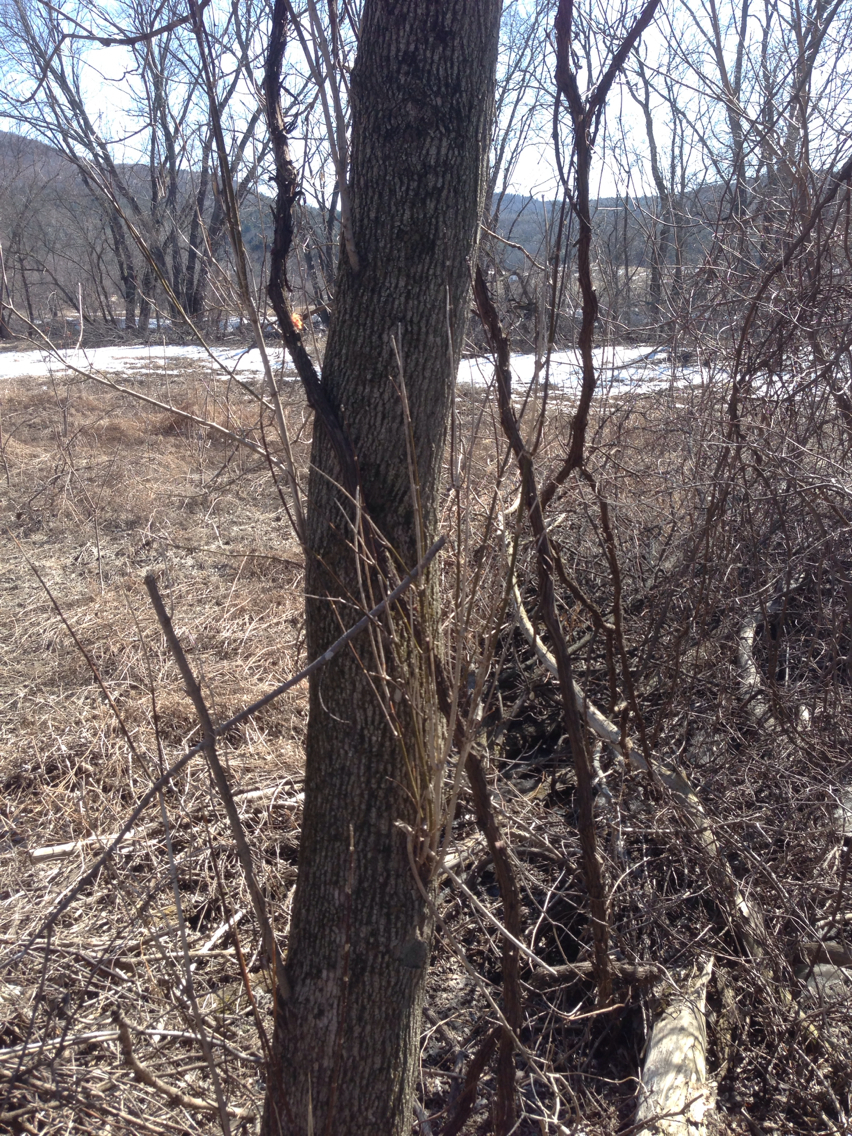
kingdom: Plantae
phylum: Tracheophyta
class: Magnoliopsida
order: Sapindales
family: Sapindaceae
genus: Acer
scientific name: Acer negundo
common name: Ashleaf maple
